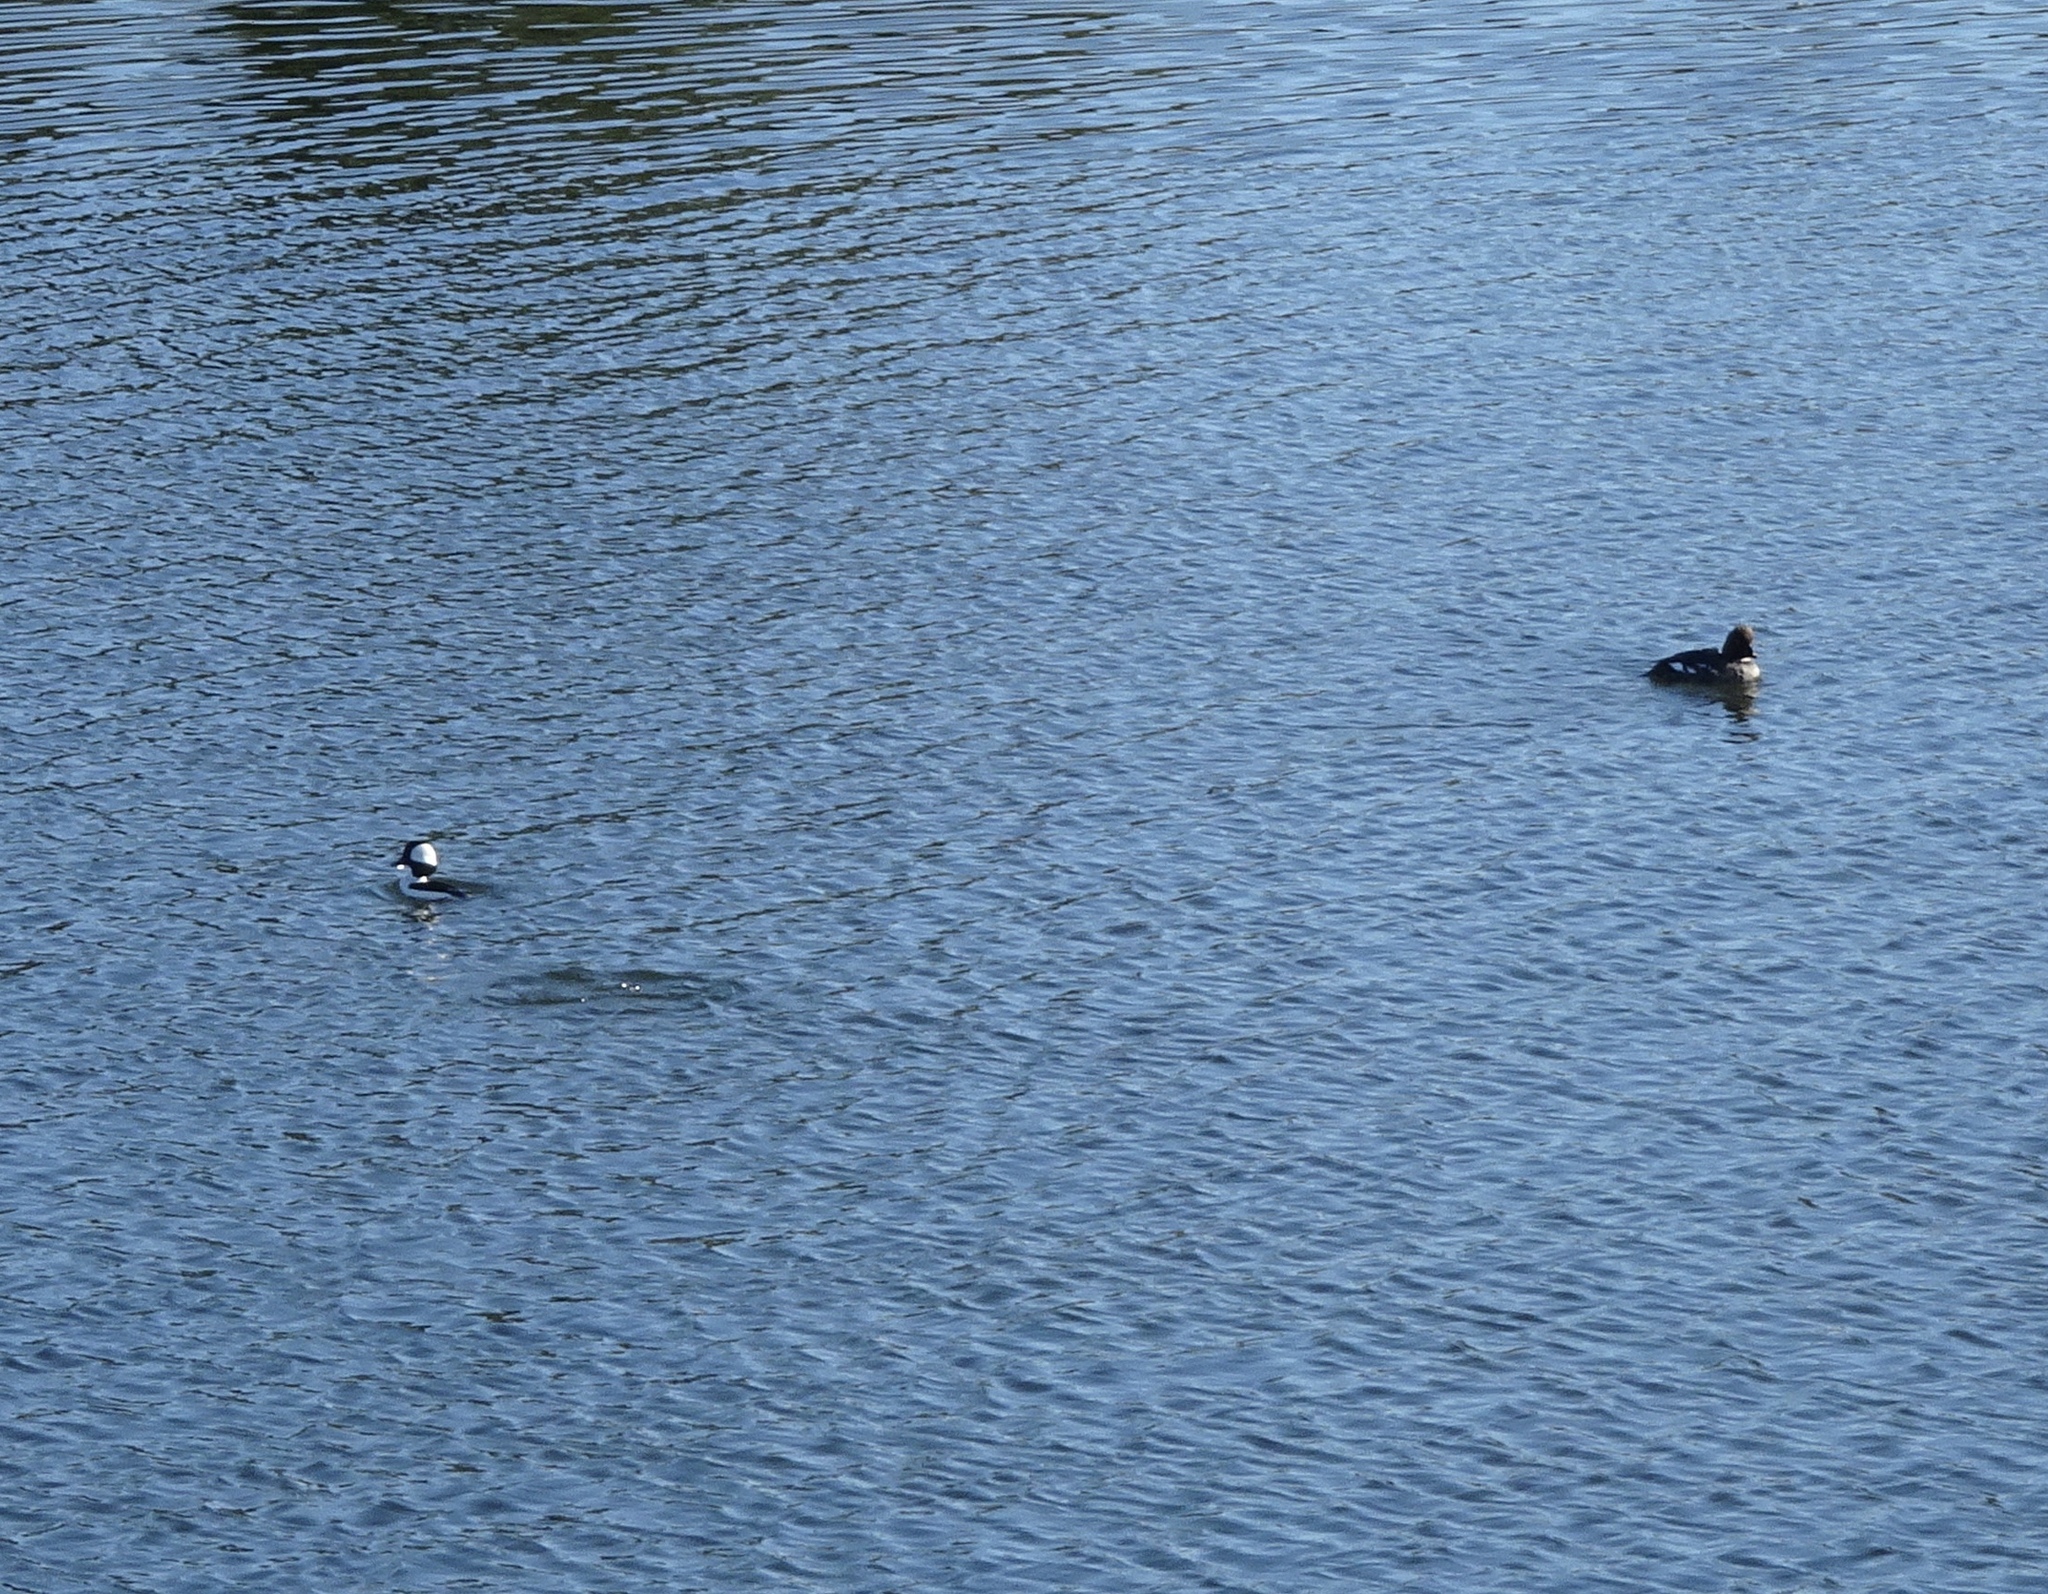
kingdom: Animalia
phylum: Chordata
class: Aves
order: Anseriformes
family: Anatidae
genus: Bucephala
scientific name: Bucephala albeola
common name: Bufflehead
